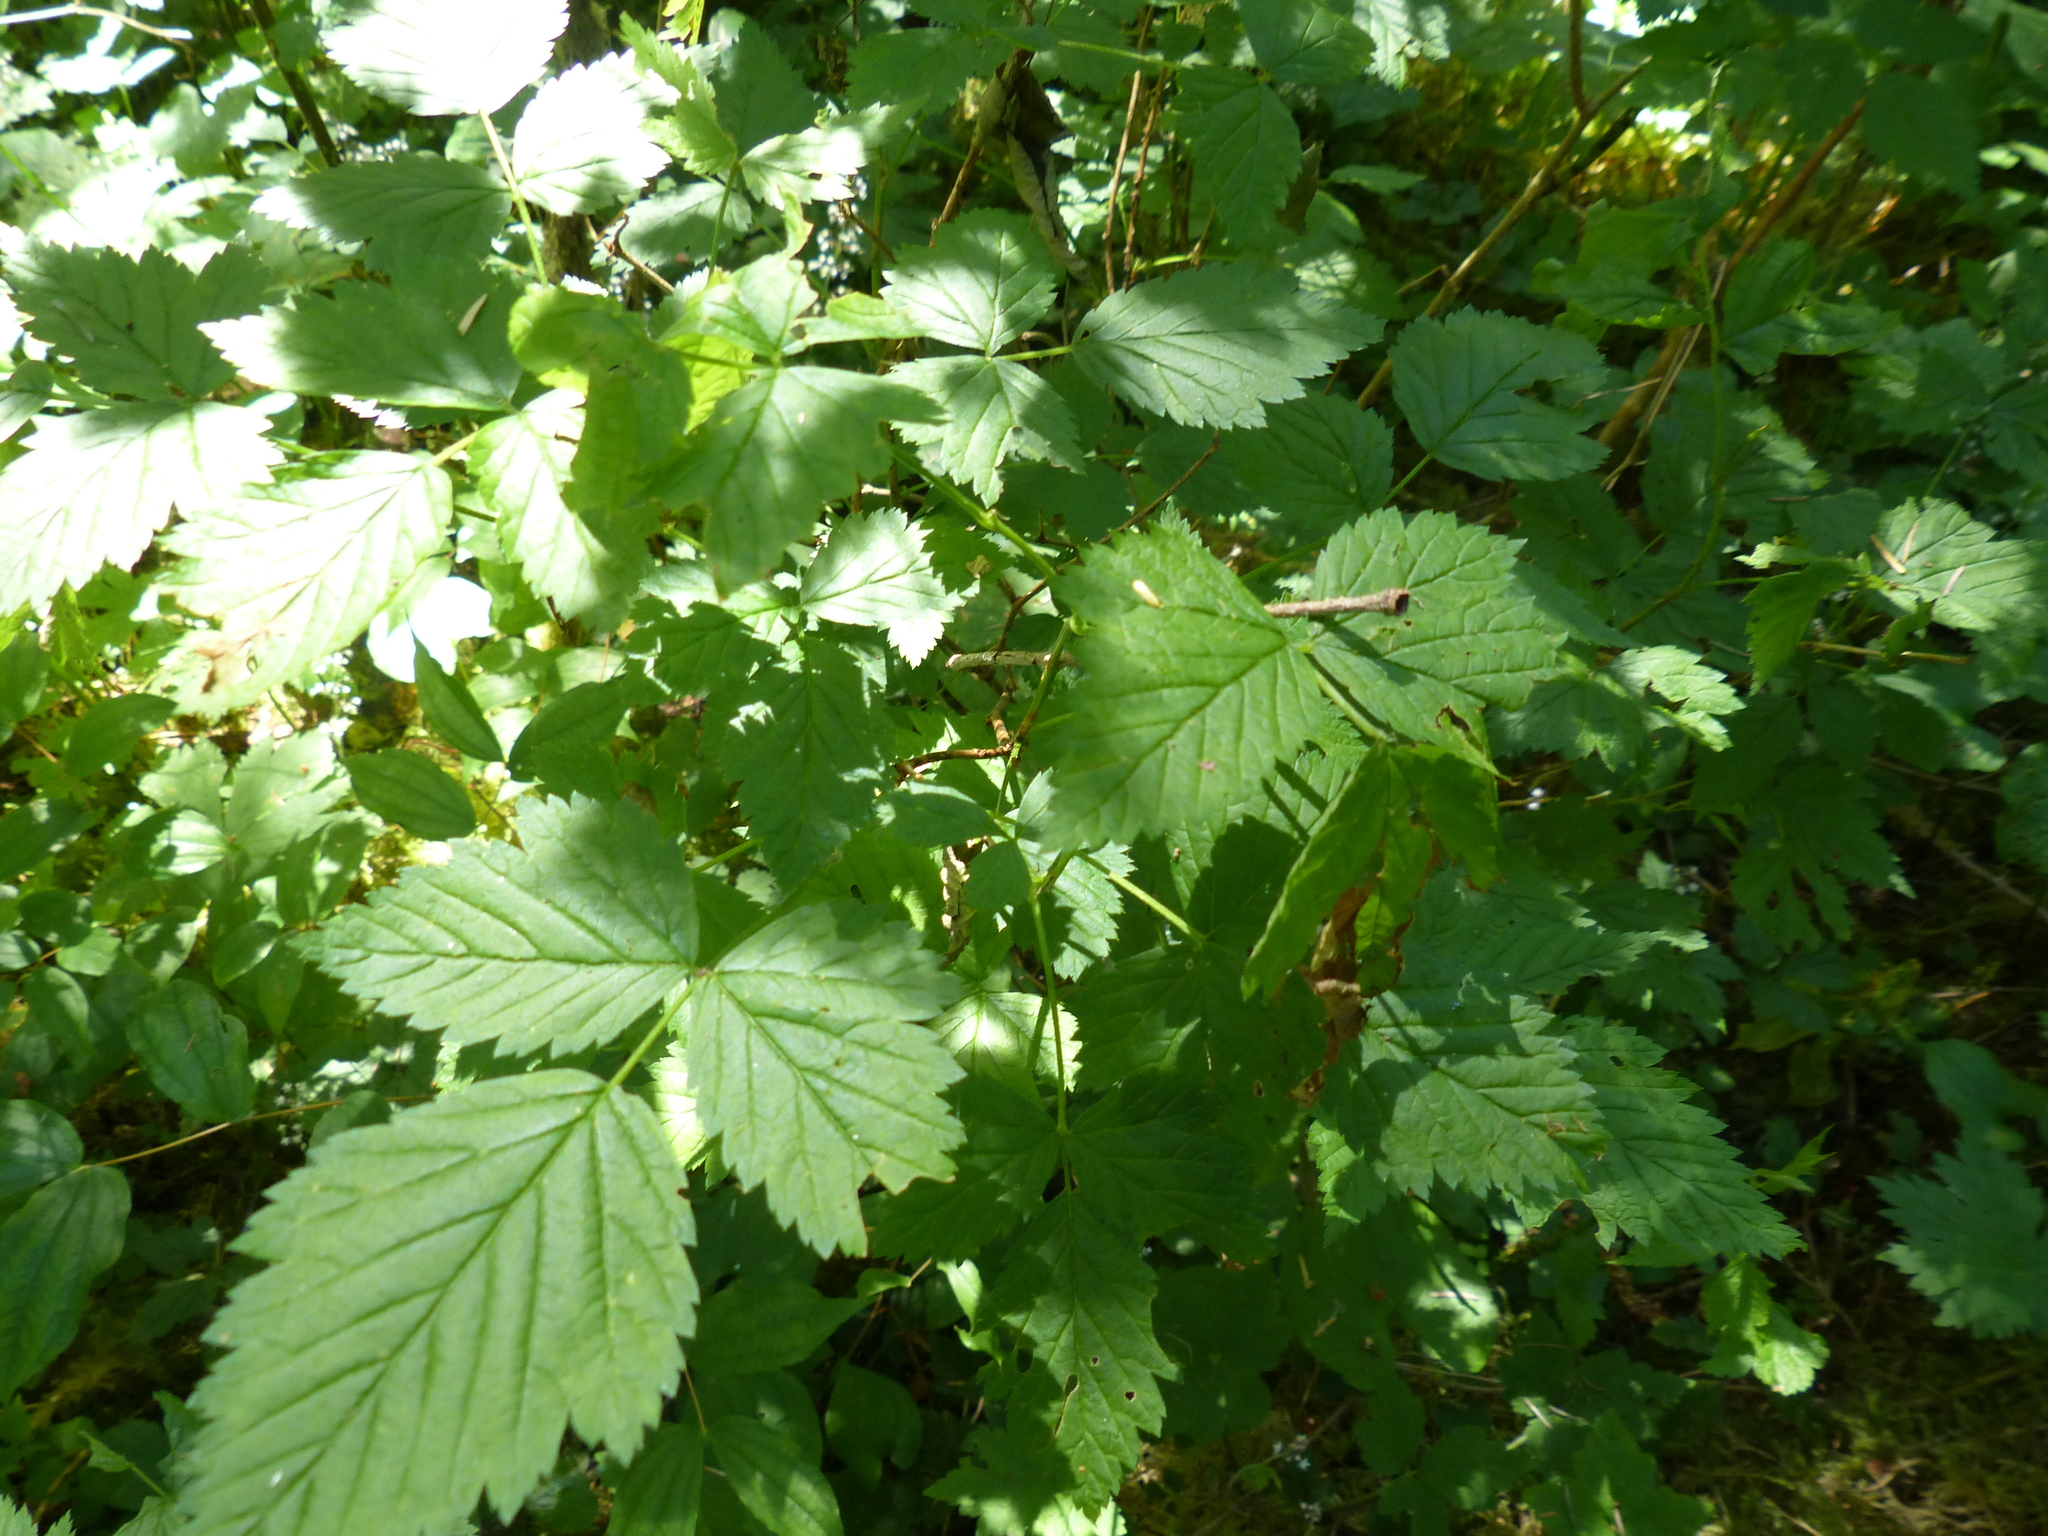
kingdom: Plantae
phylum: Tracheophyta
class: Magnoliopsida
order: Rosales
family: Rosaceae
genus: Rubus
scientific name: Rubus spectabilis
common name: Salmonberry
